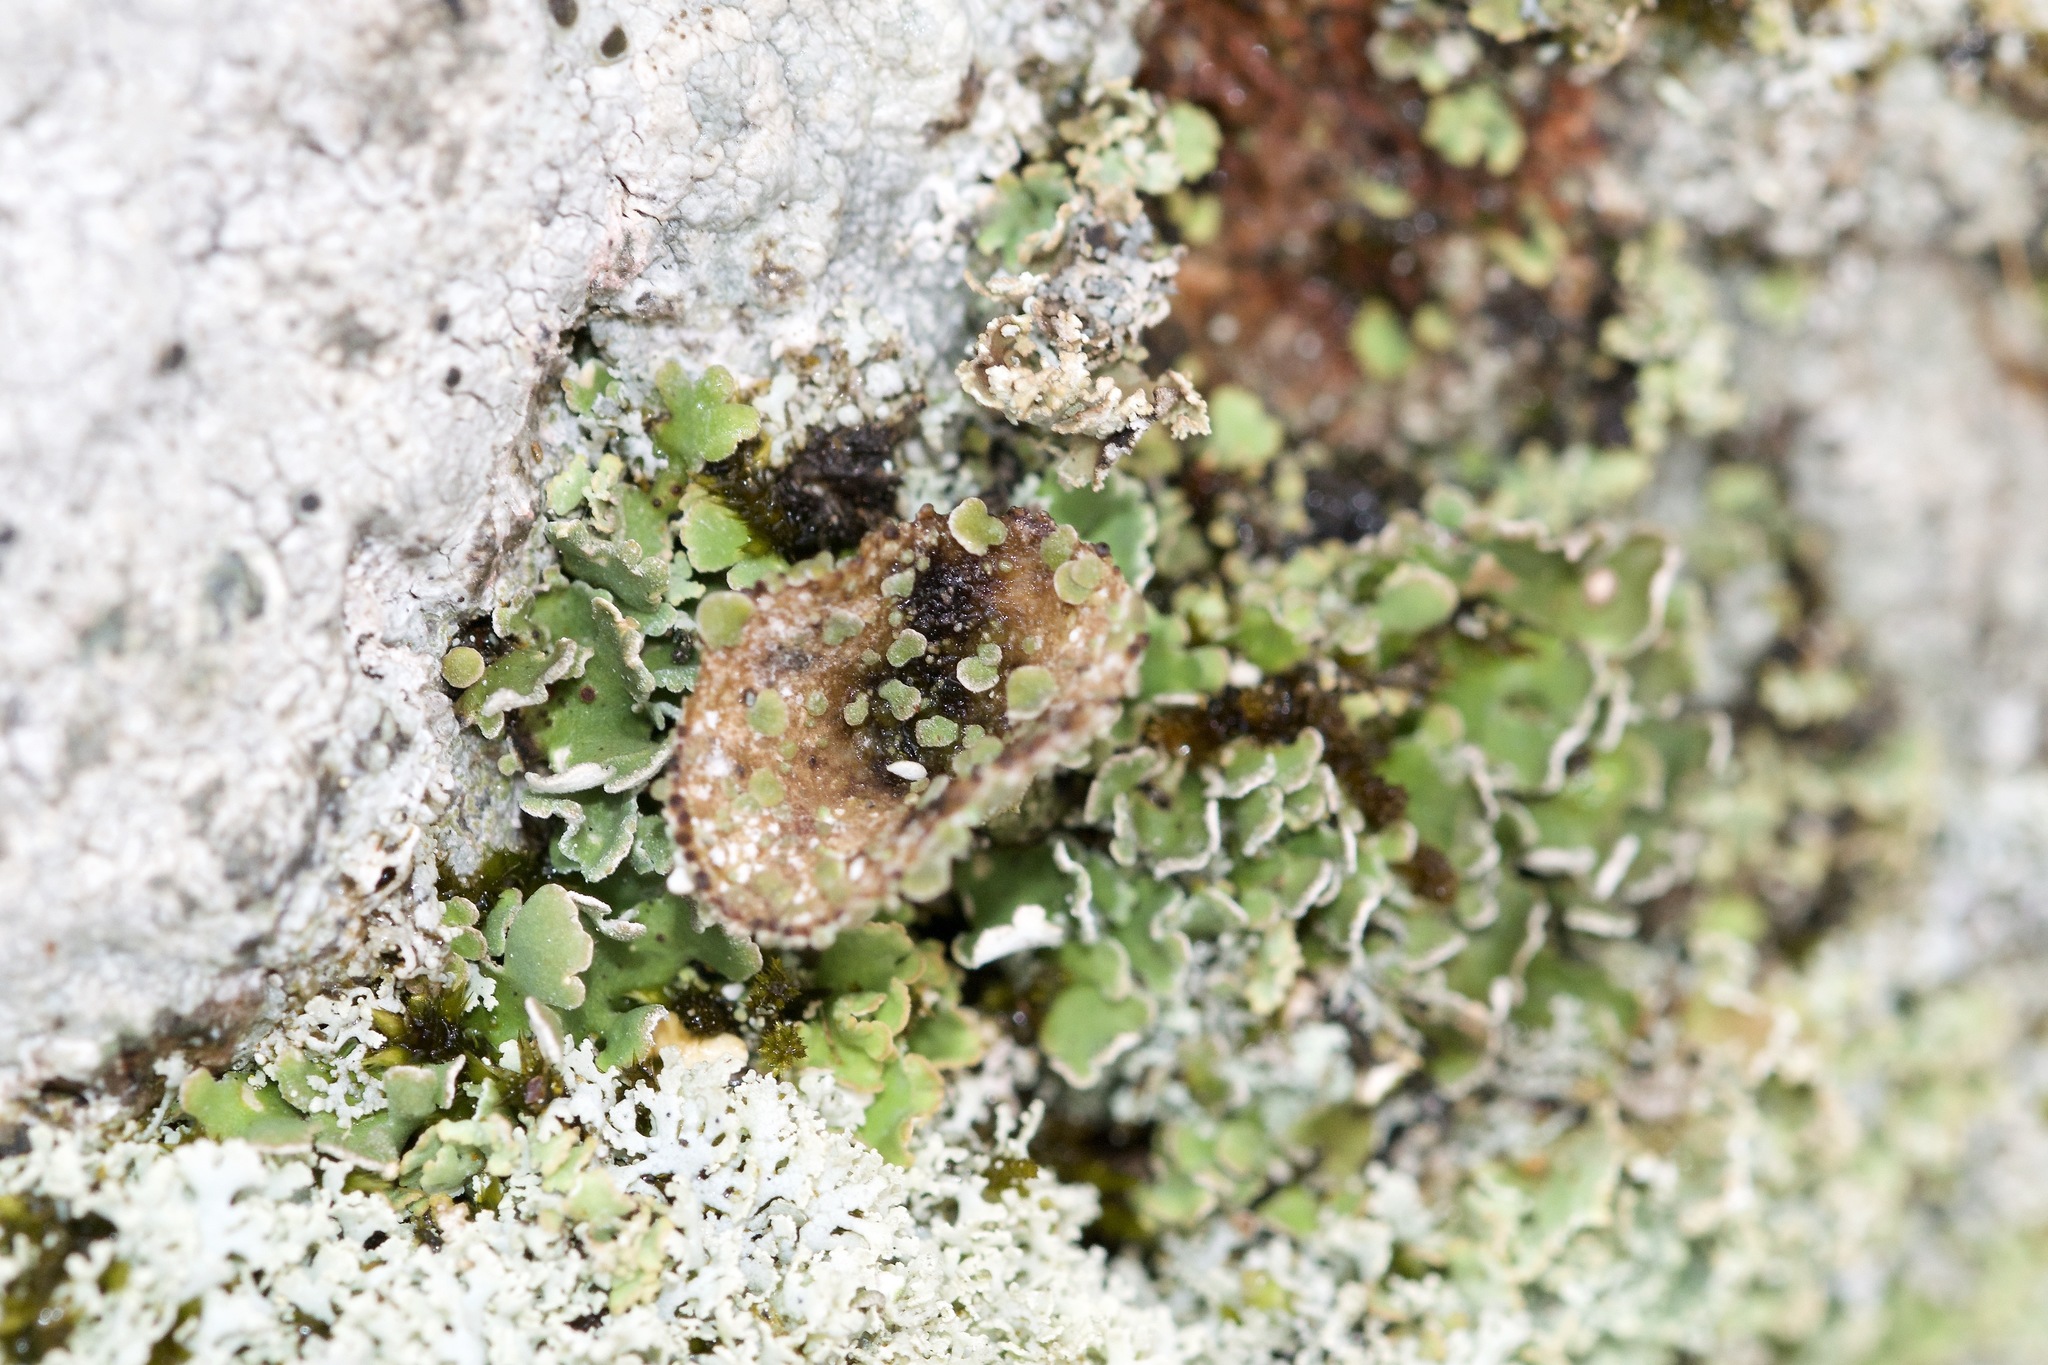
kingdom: Fungi
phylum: Ascomycota
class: Lecanoromycetes
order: Lecanorales
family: Cladoniaceae
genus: Cladonia
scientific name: Cladonia pyxidata
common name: Pebbled pixie cup
